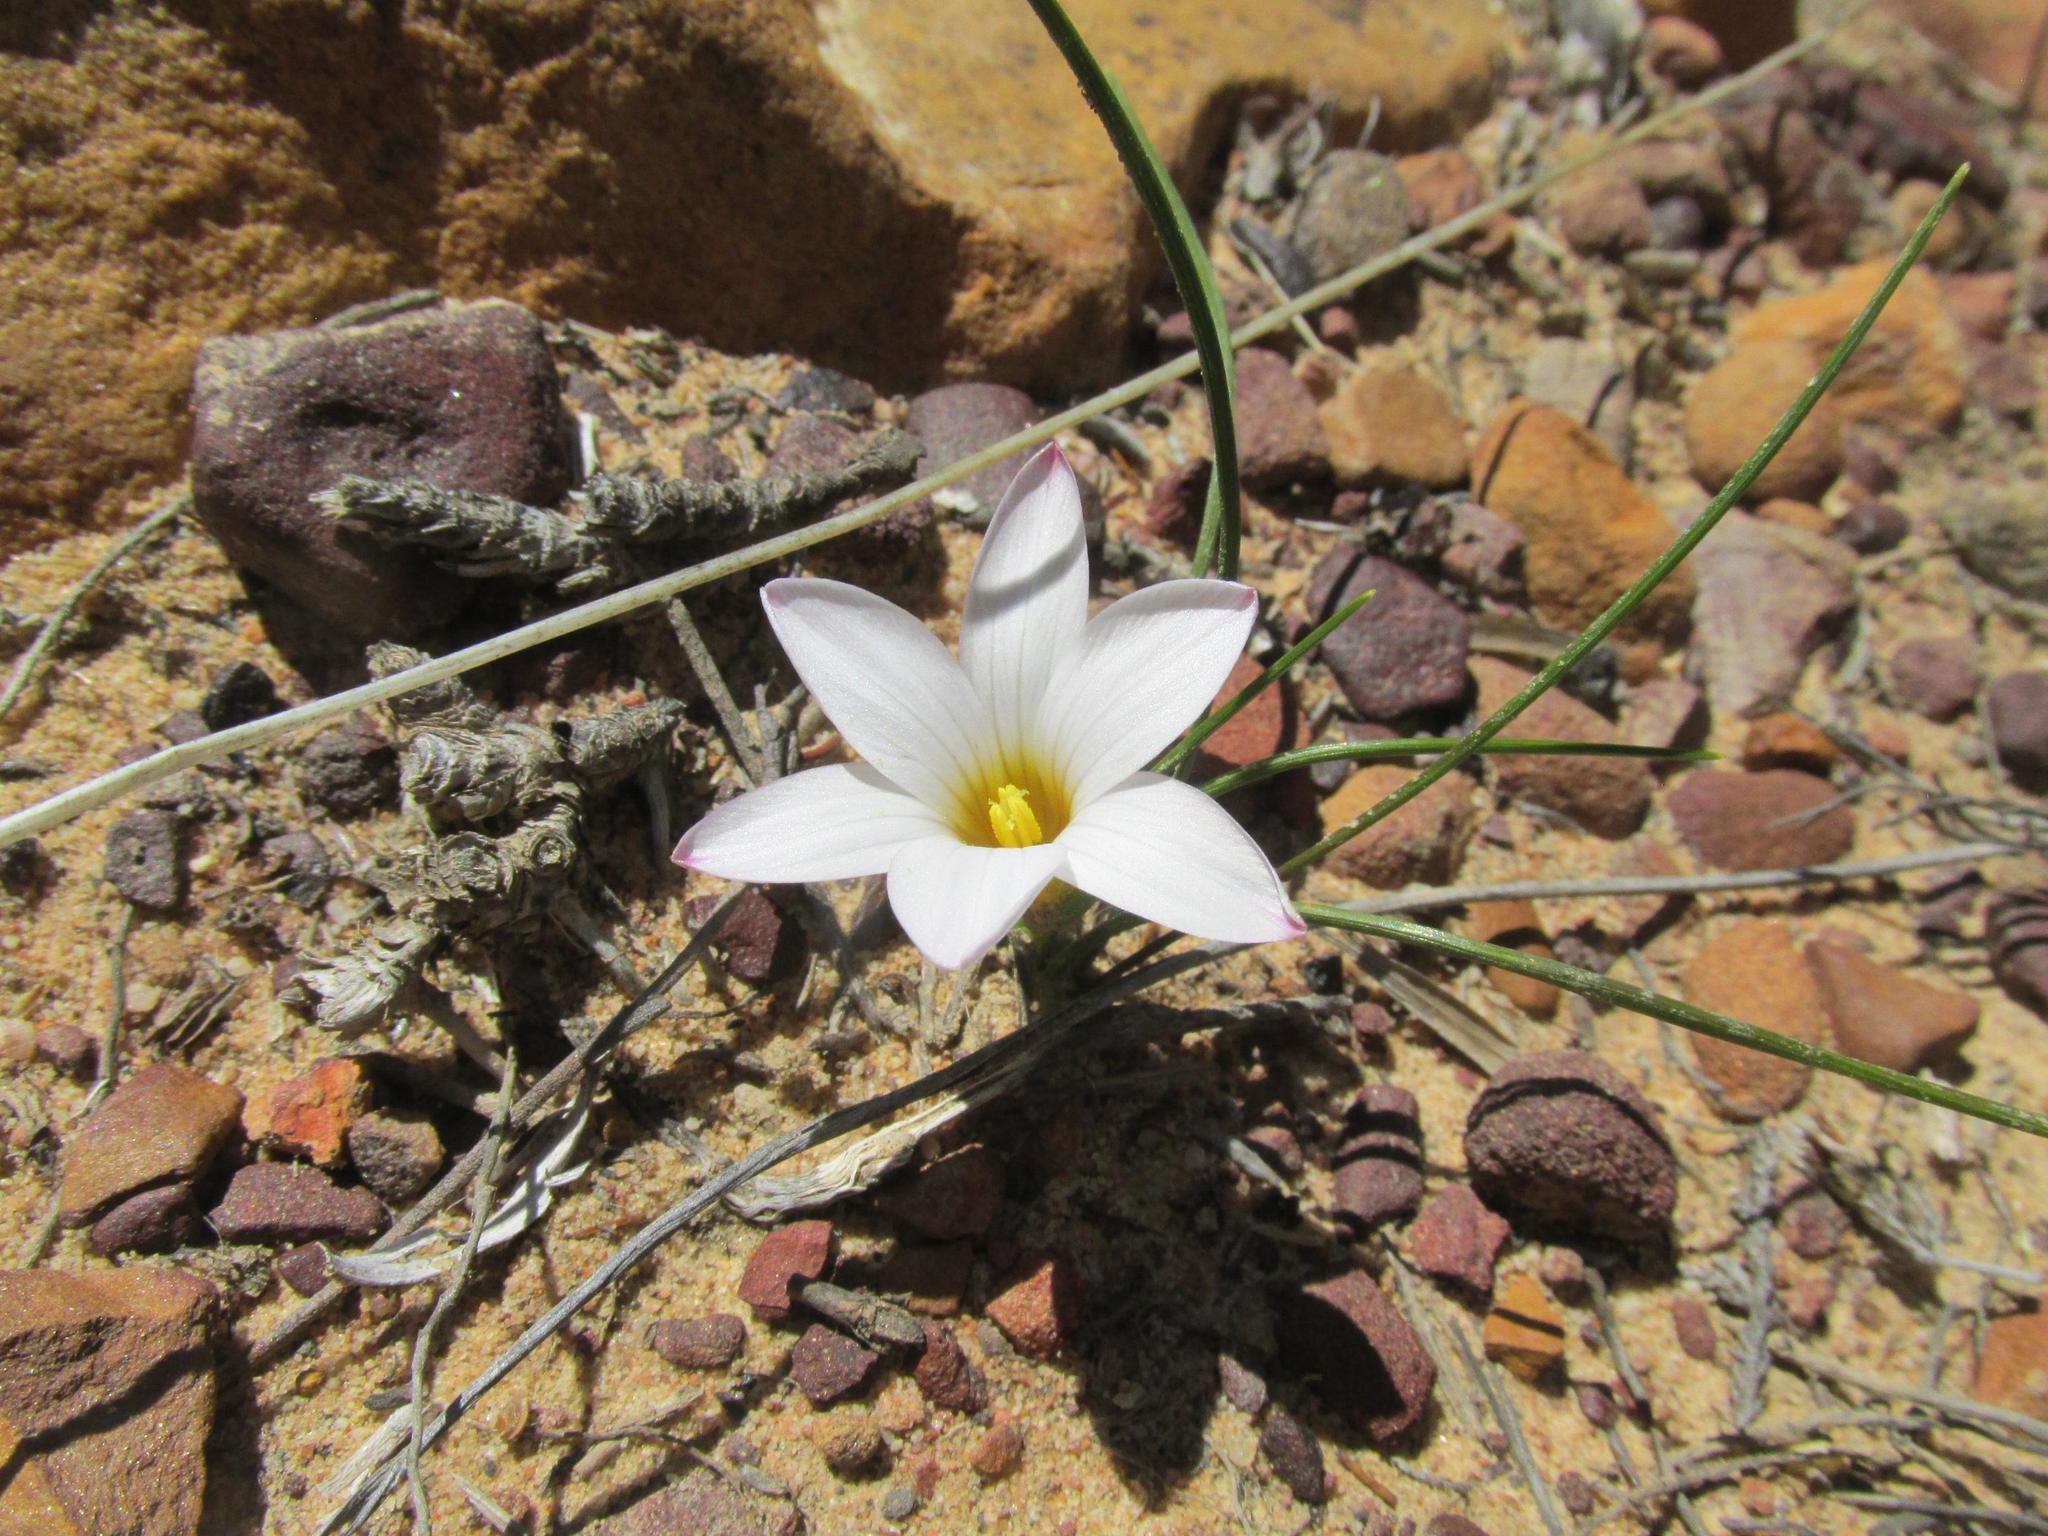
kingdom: Plantae
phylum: Tracheophyta
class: Liliopsida
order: Asparagales
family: Iridaceae
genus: Romulea
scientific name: Romulea flava
